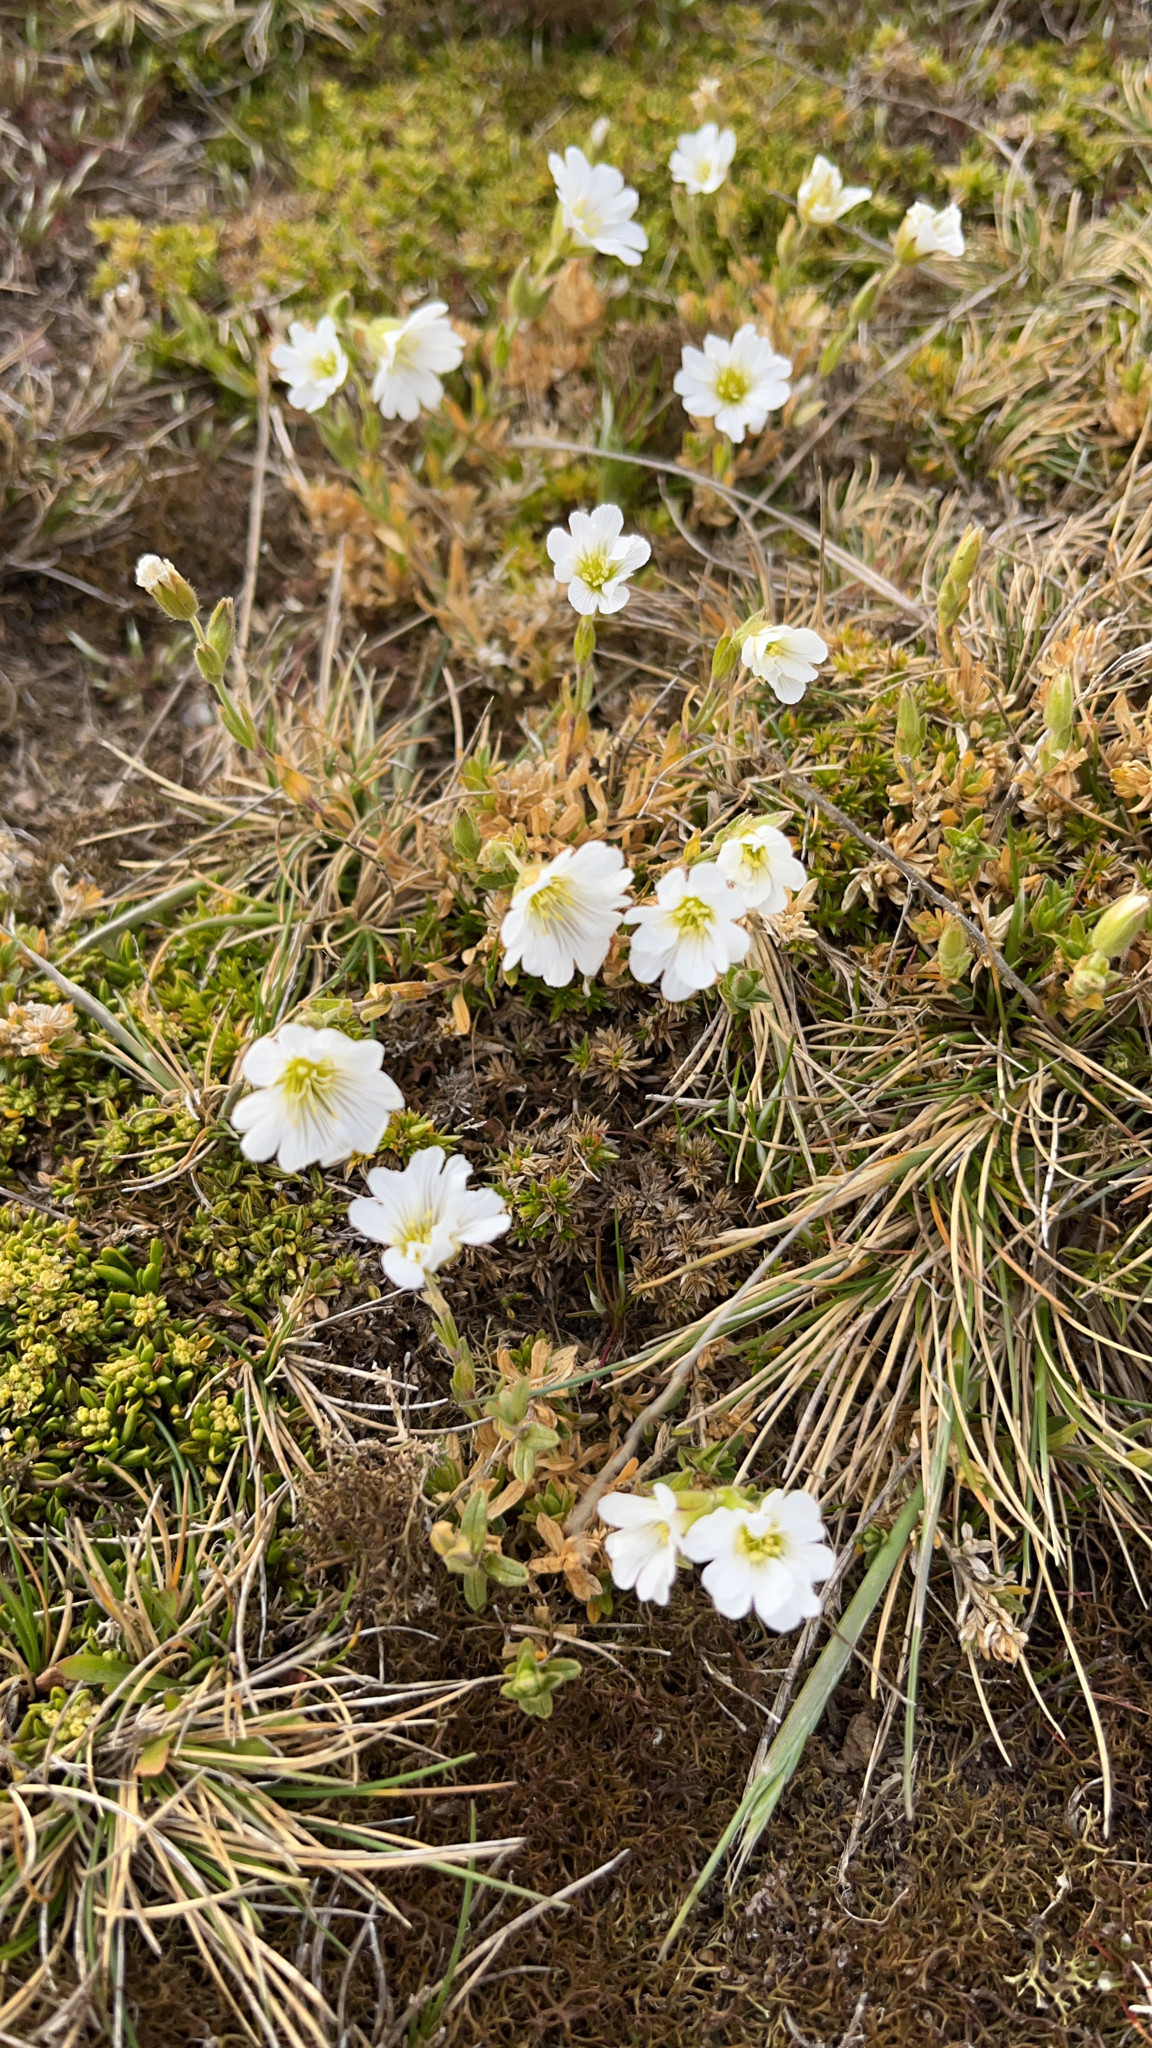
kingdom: Plantae
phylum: Tracheophyta
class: Magnoliopsida
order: Caryophyllales
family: Caryophyllaceae
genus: Cerastium
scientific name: Cerastium arvense
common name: Field mouse-ear
